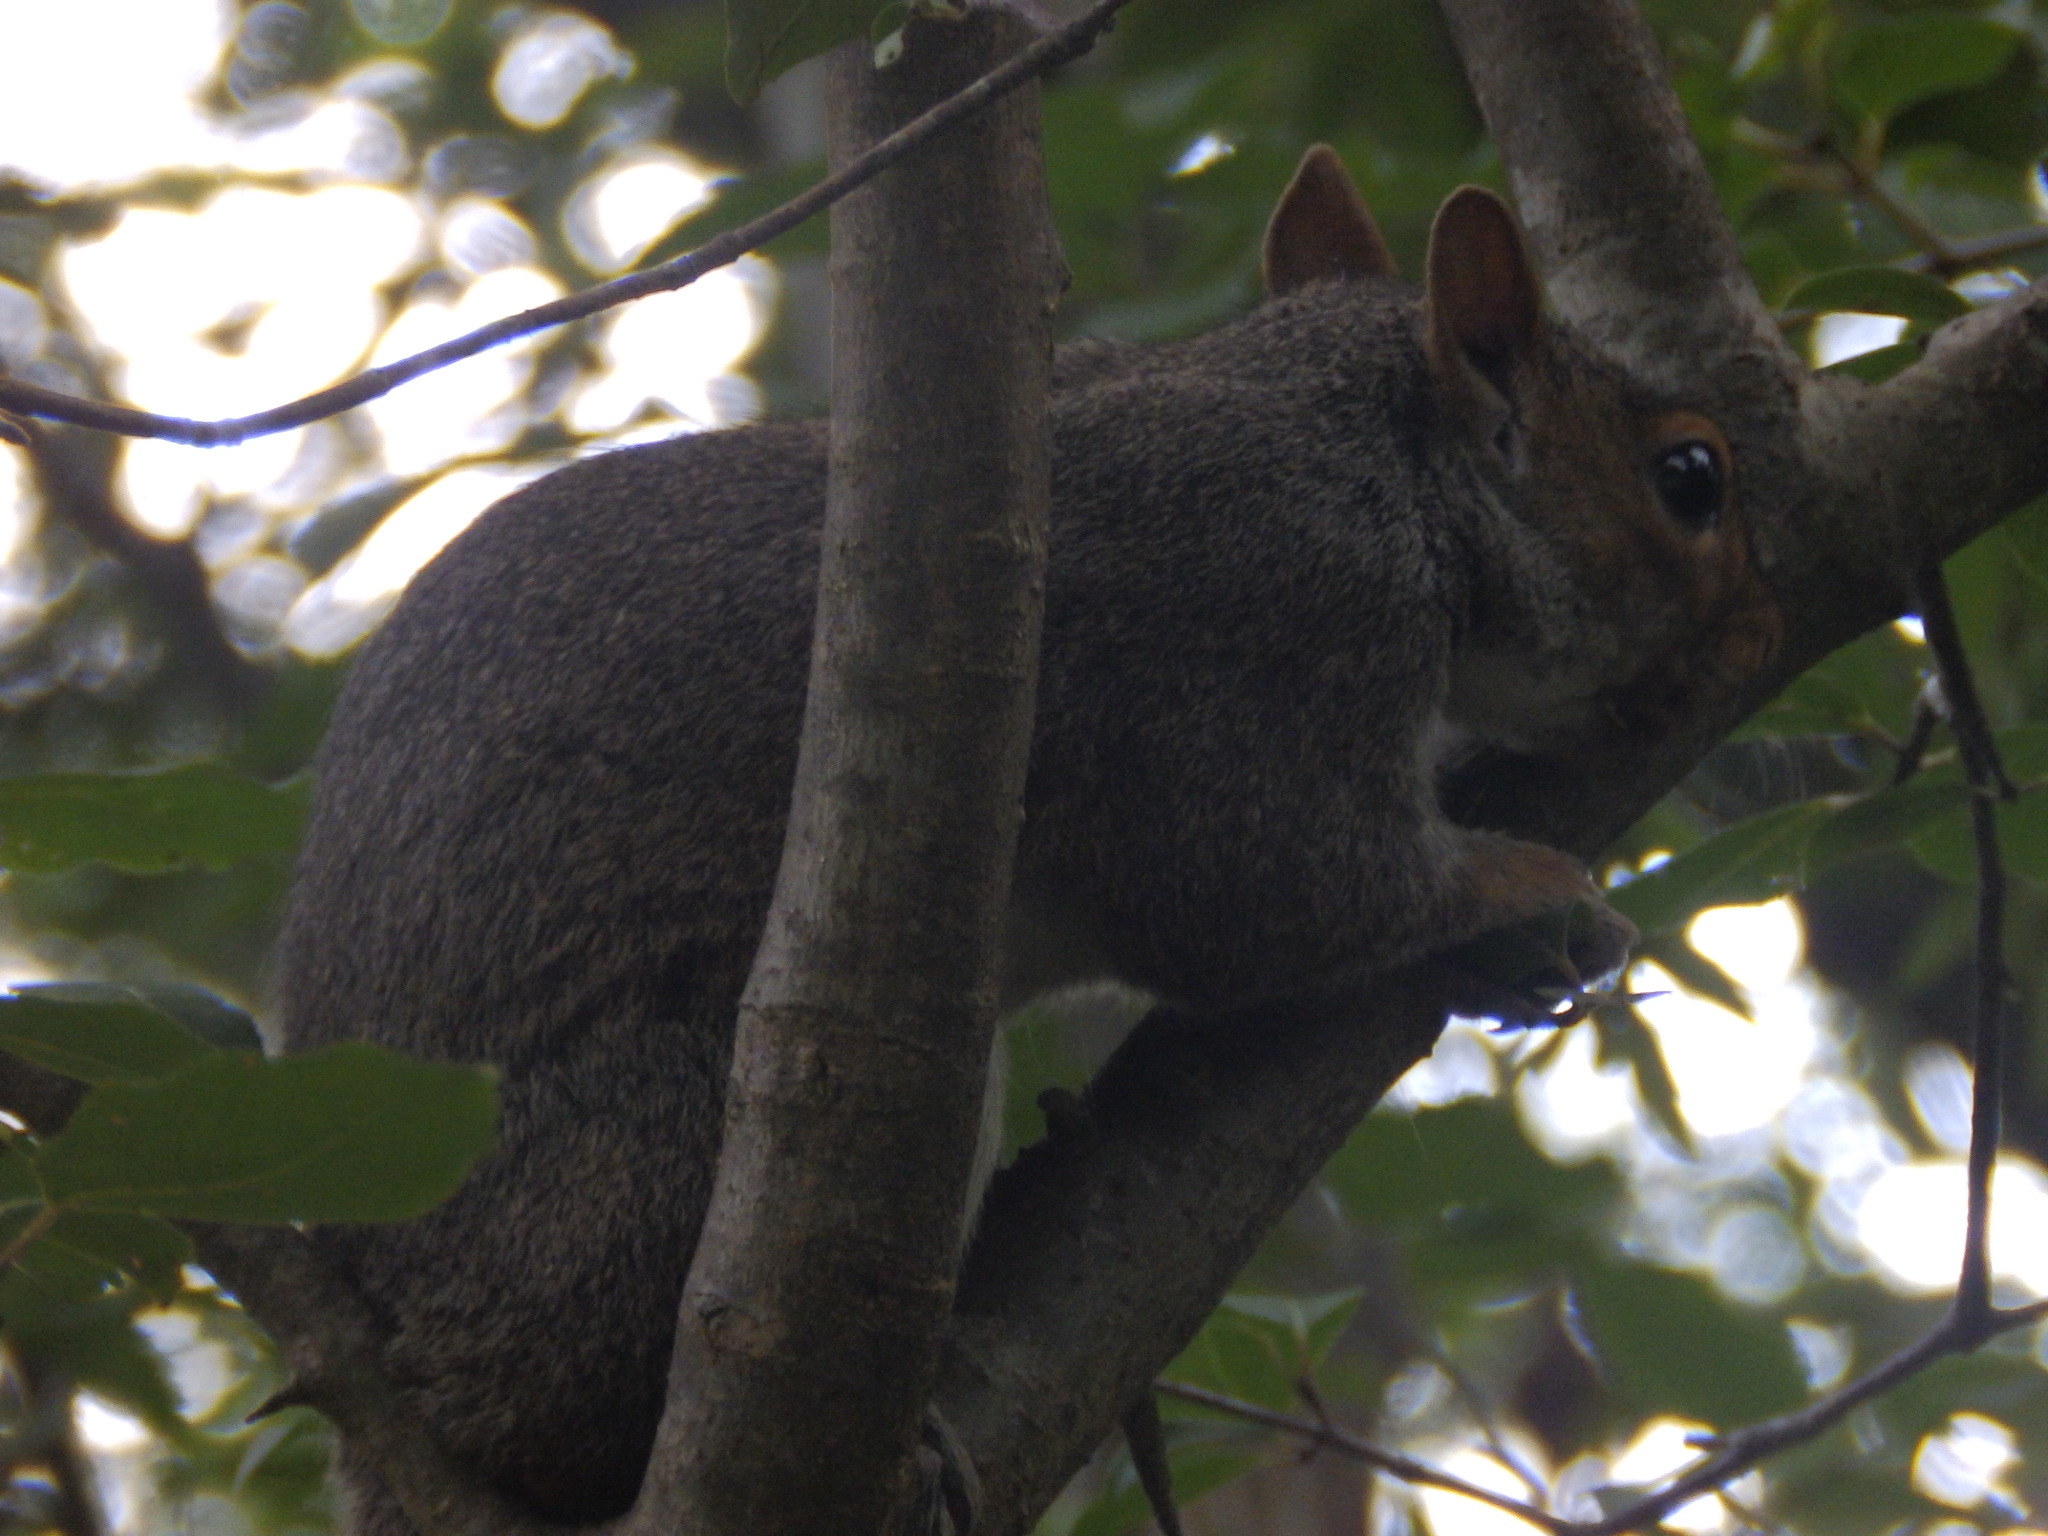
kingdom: Animalia
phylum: Chordata
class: Mammalia
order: Rodentia
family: Sciuridae
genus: Sciurus
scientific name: Sciurus carolinensis
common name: Eastern gray squirrel
